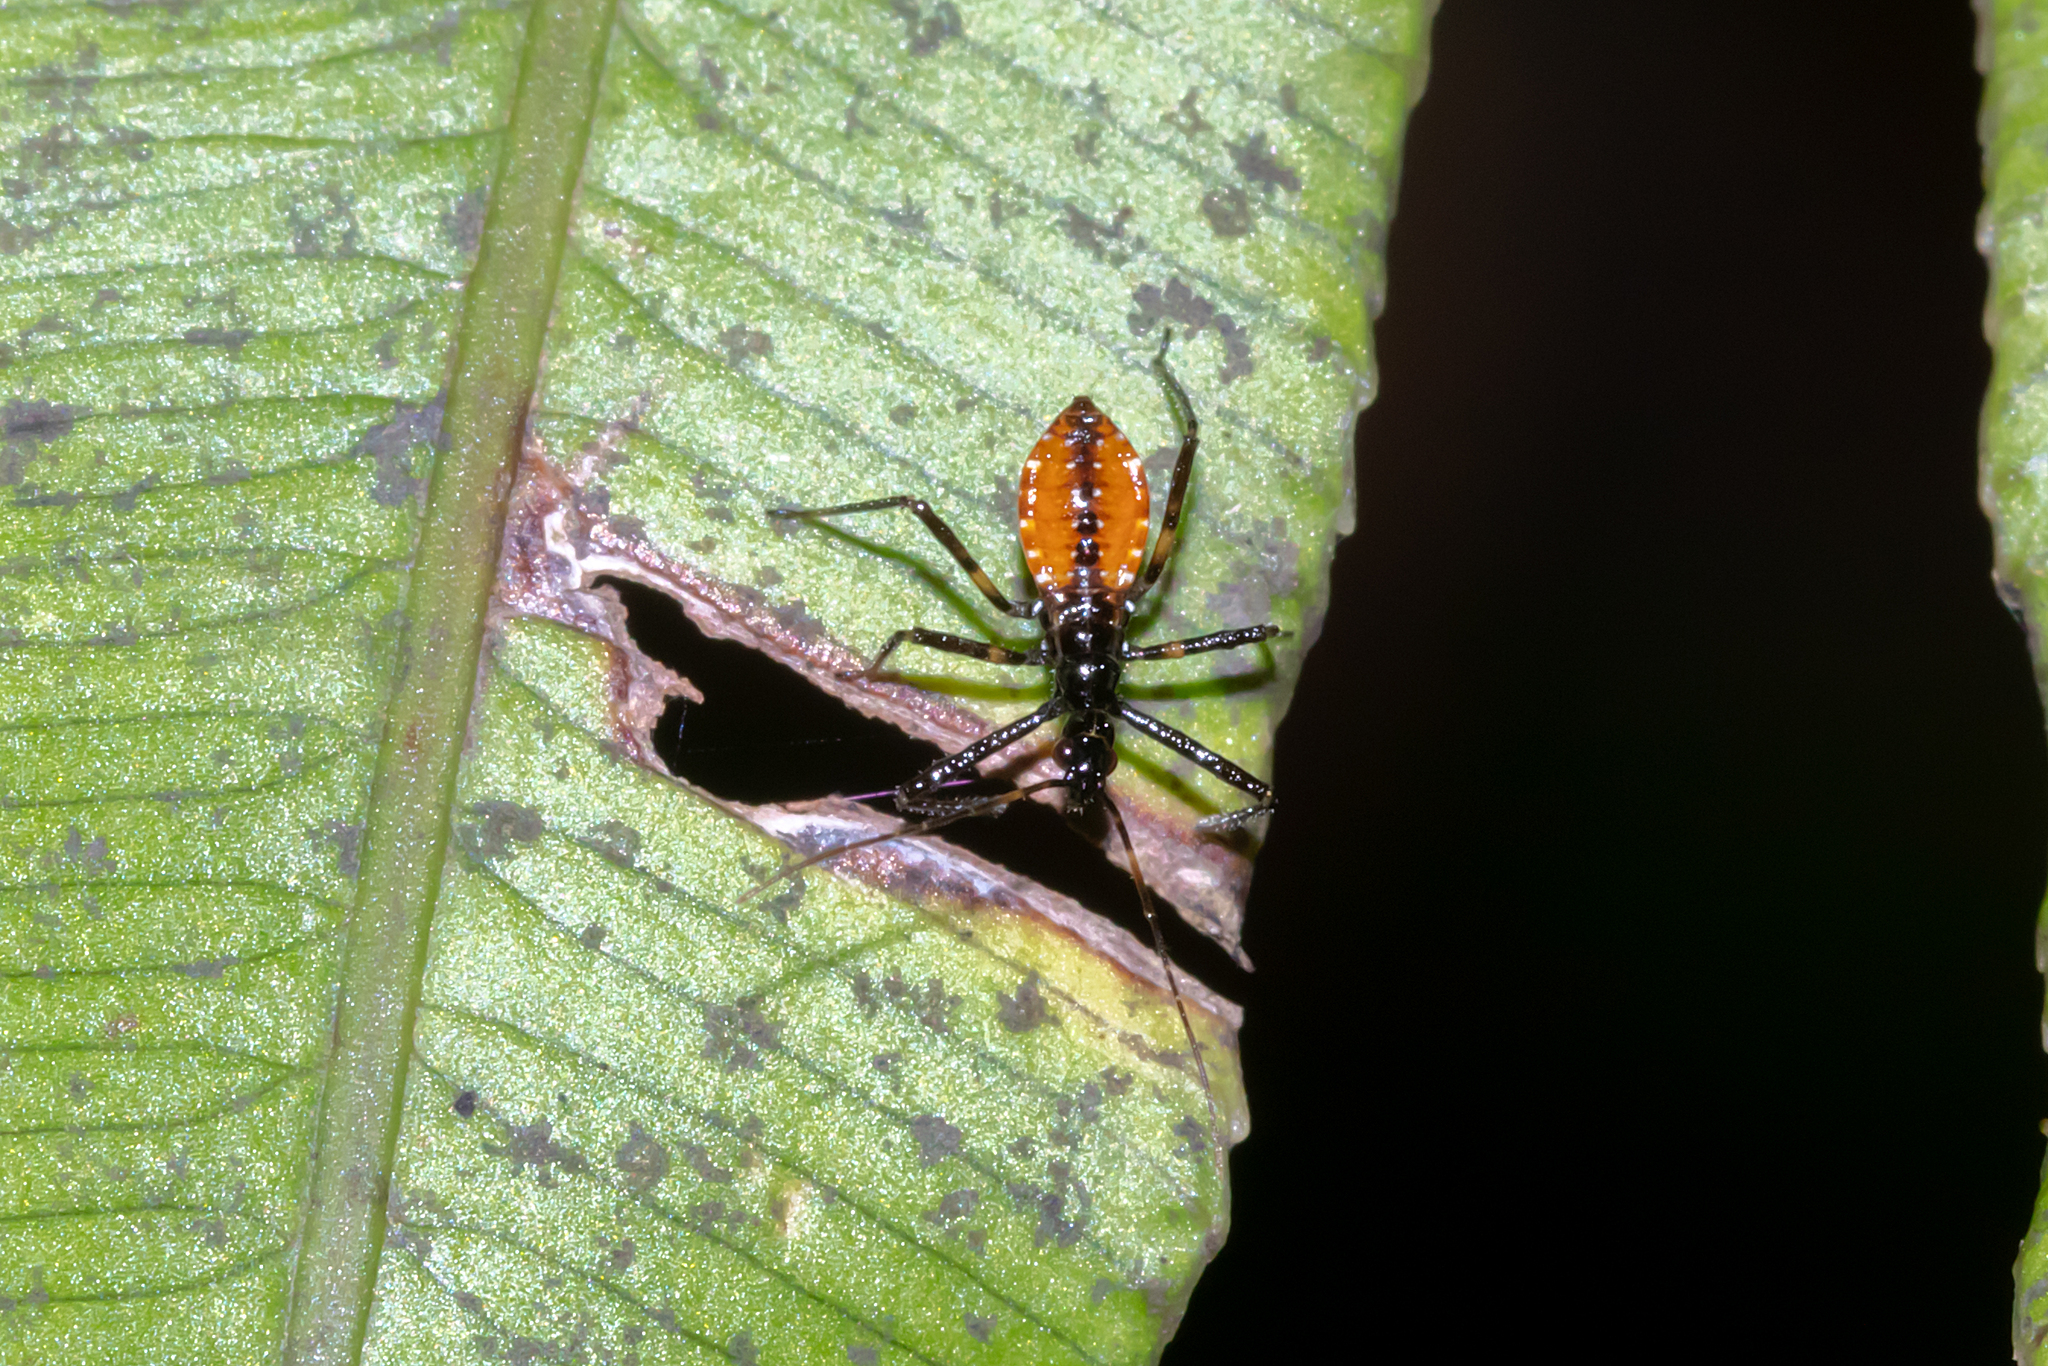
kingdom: Animalia
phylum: Arthropoda
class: Insecta
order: Hemiptera
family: Reduviidae
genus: Pristhesancus
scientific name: Pristhesancus plagipennis
